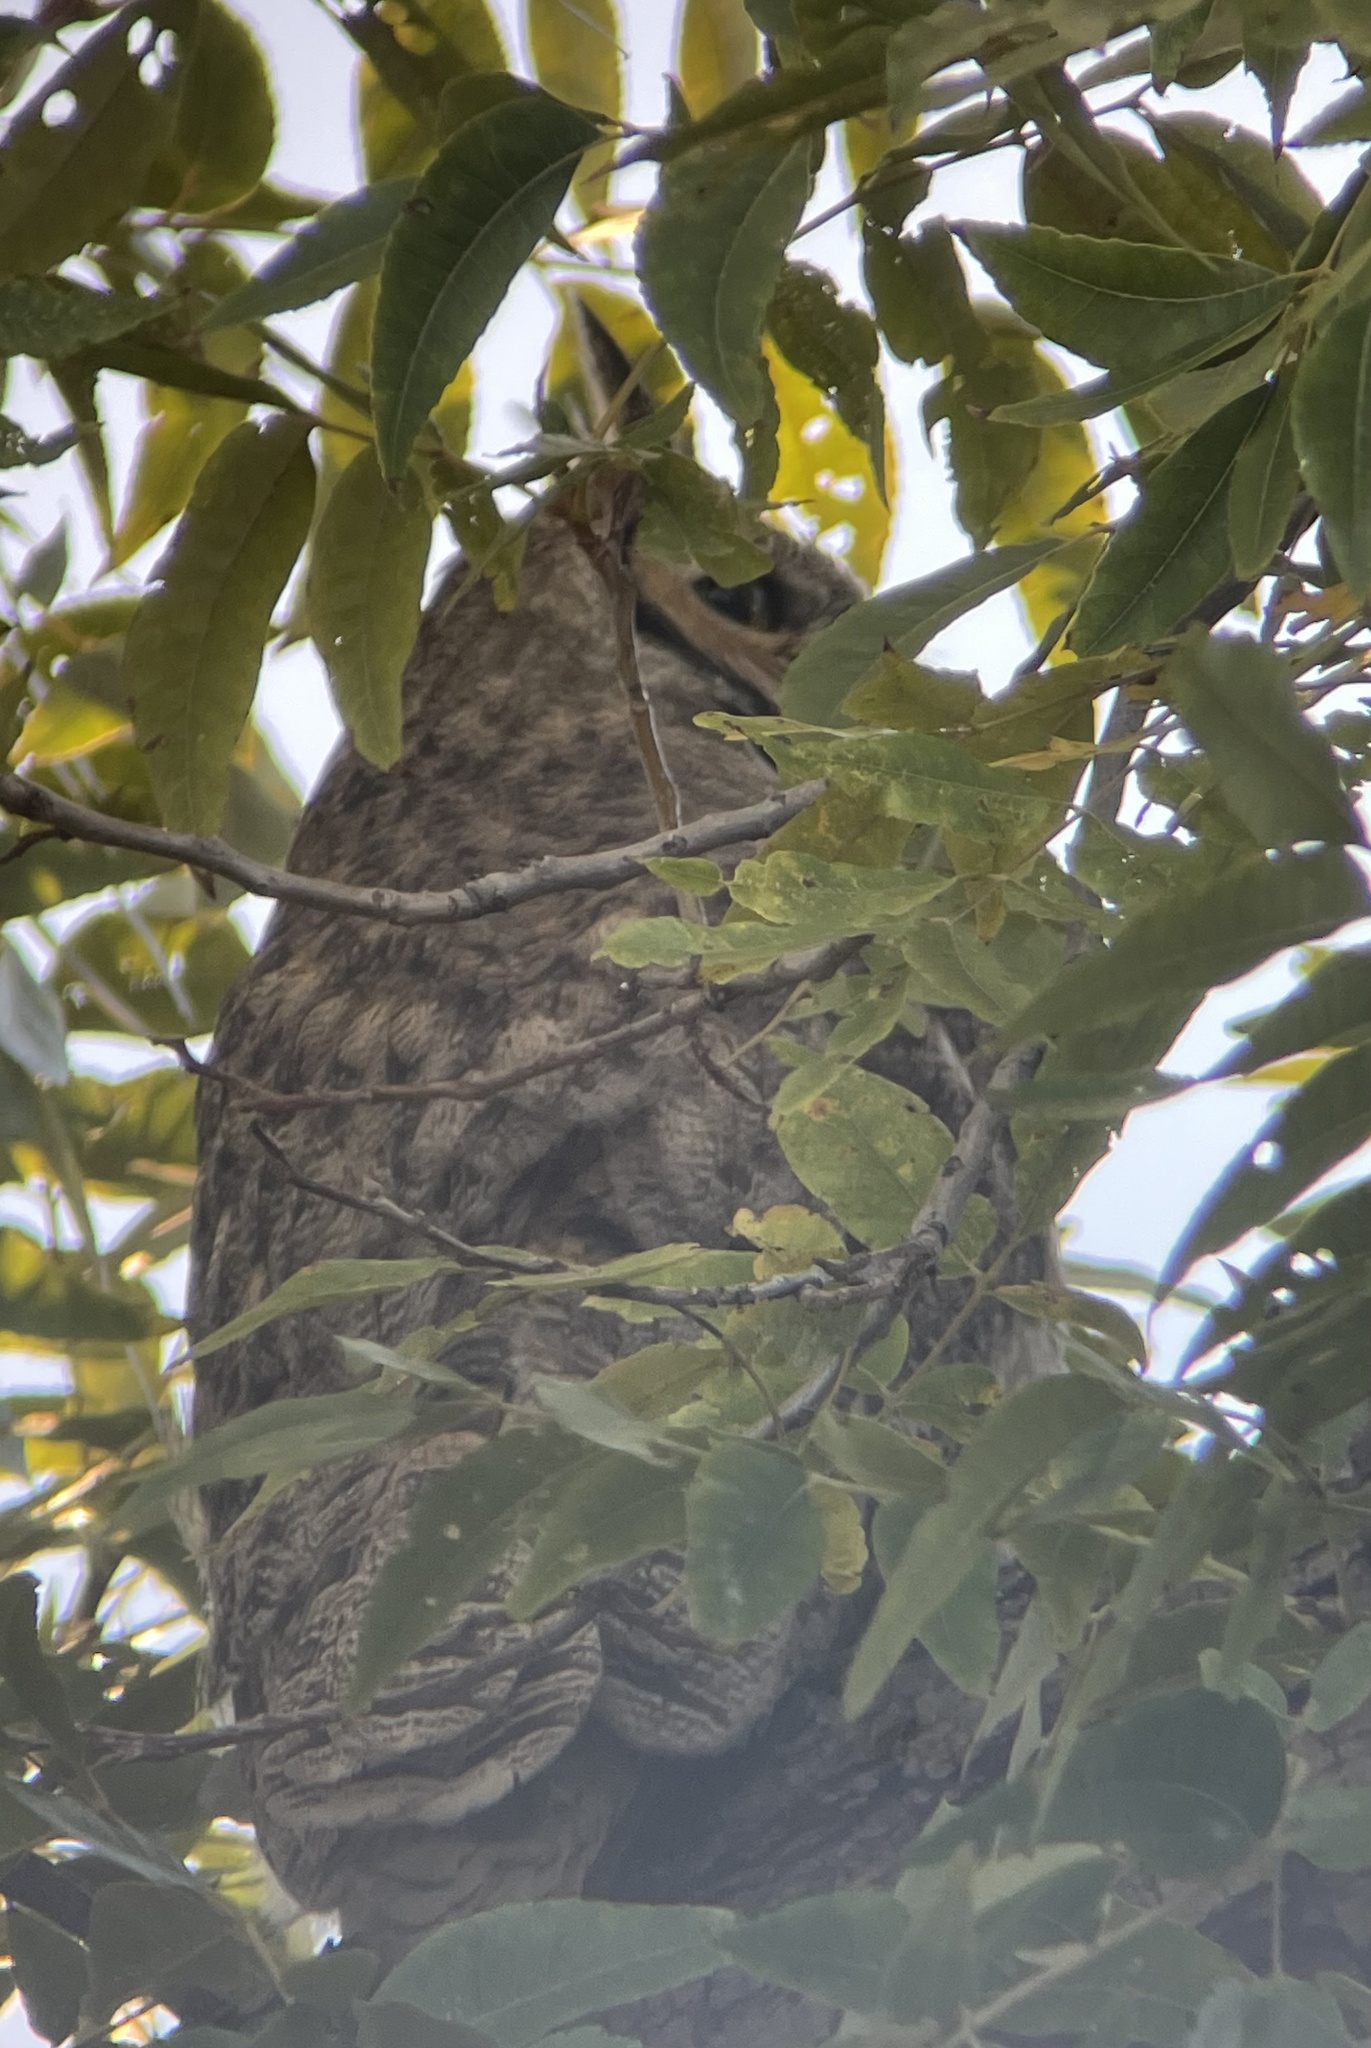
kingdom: Animalia
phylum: Chordata
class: Aves
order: Strigiformes
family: Strigidae
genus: Bubo
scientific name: Bubo virginianus
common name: Great horned owl
